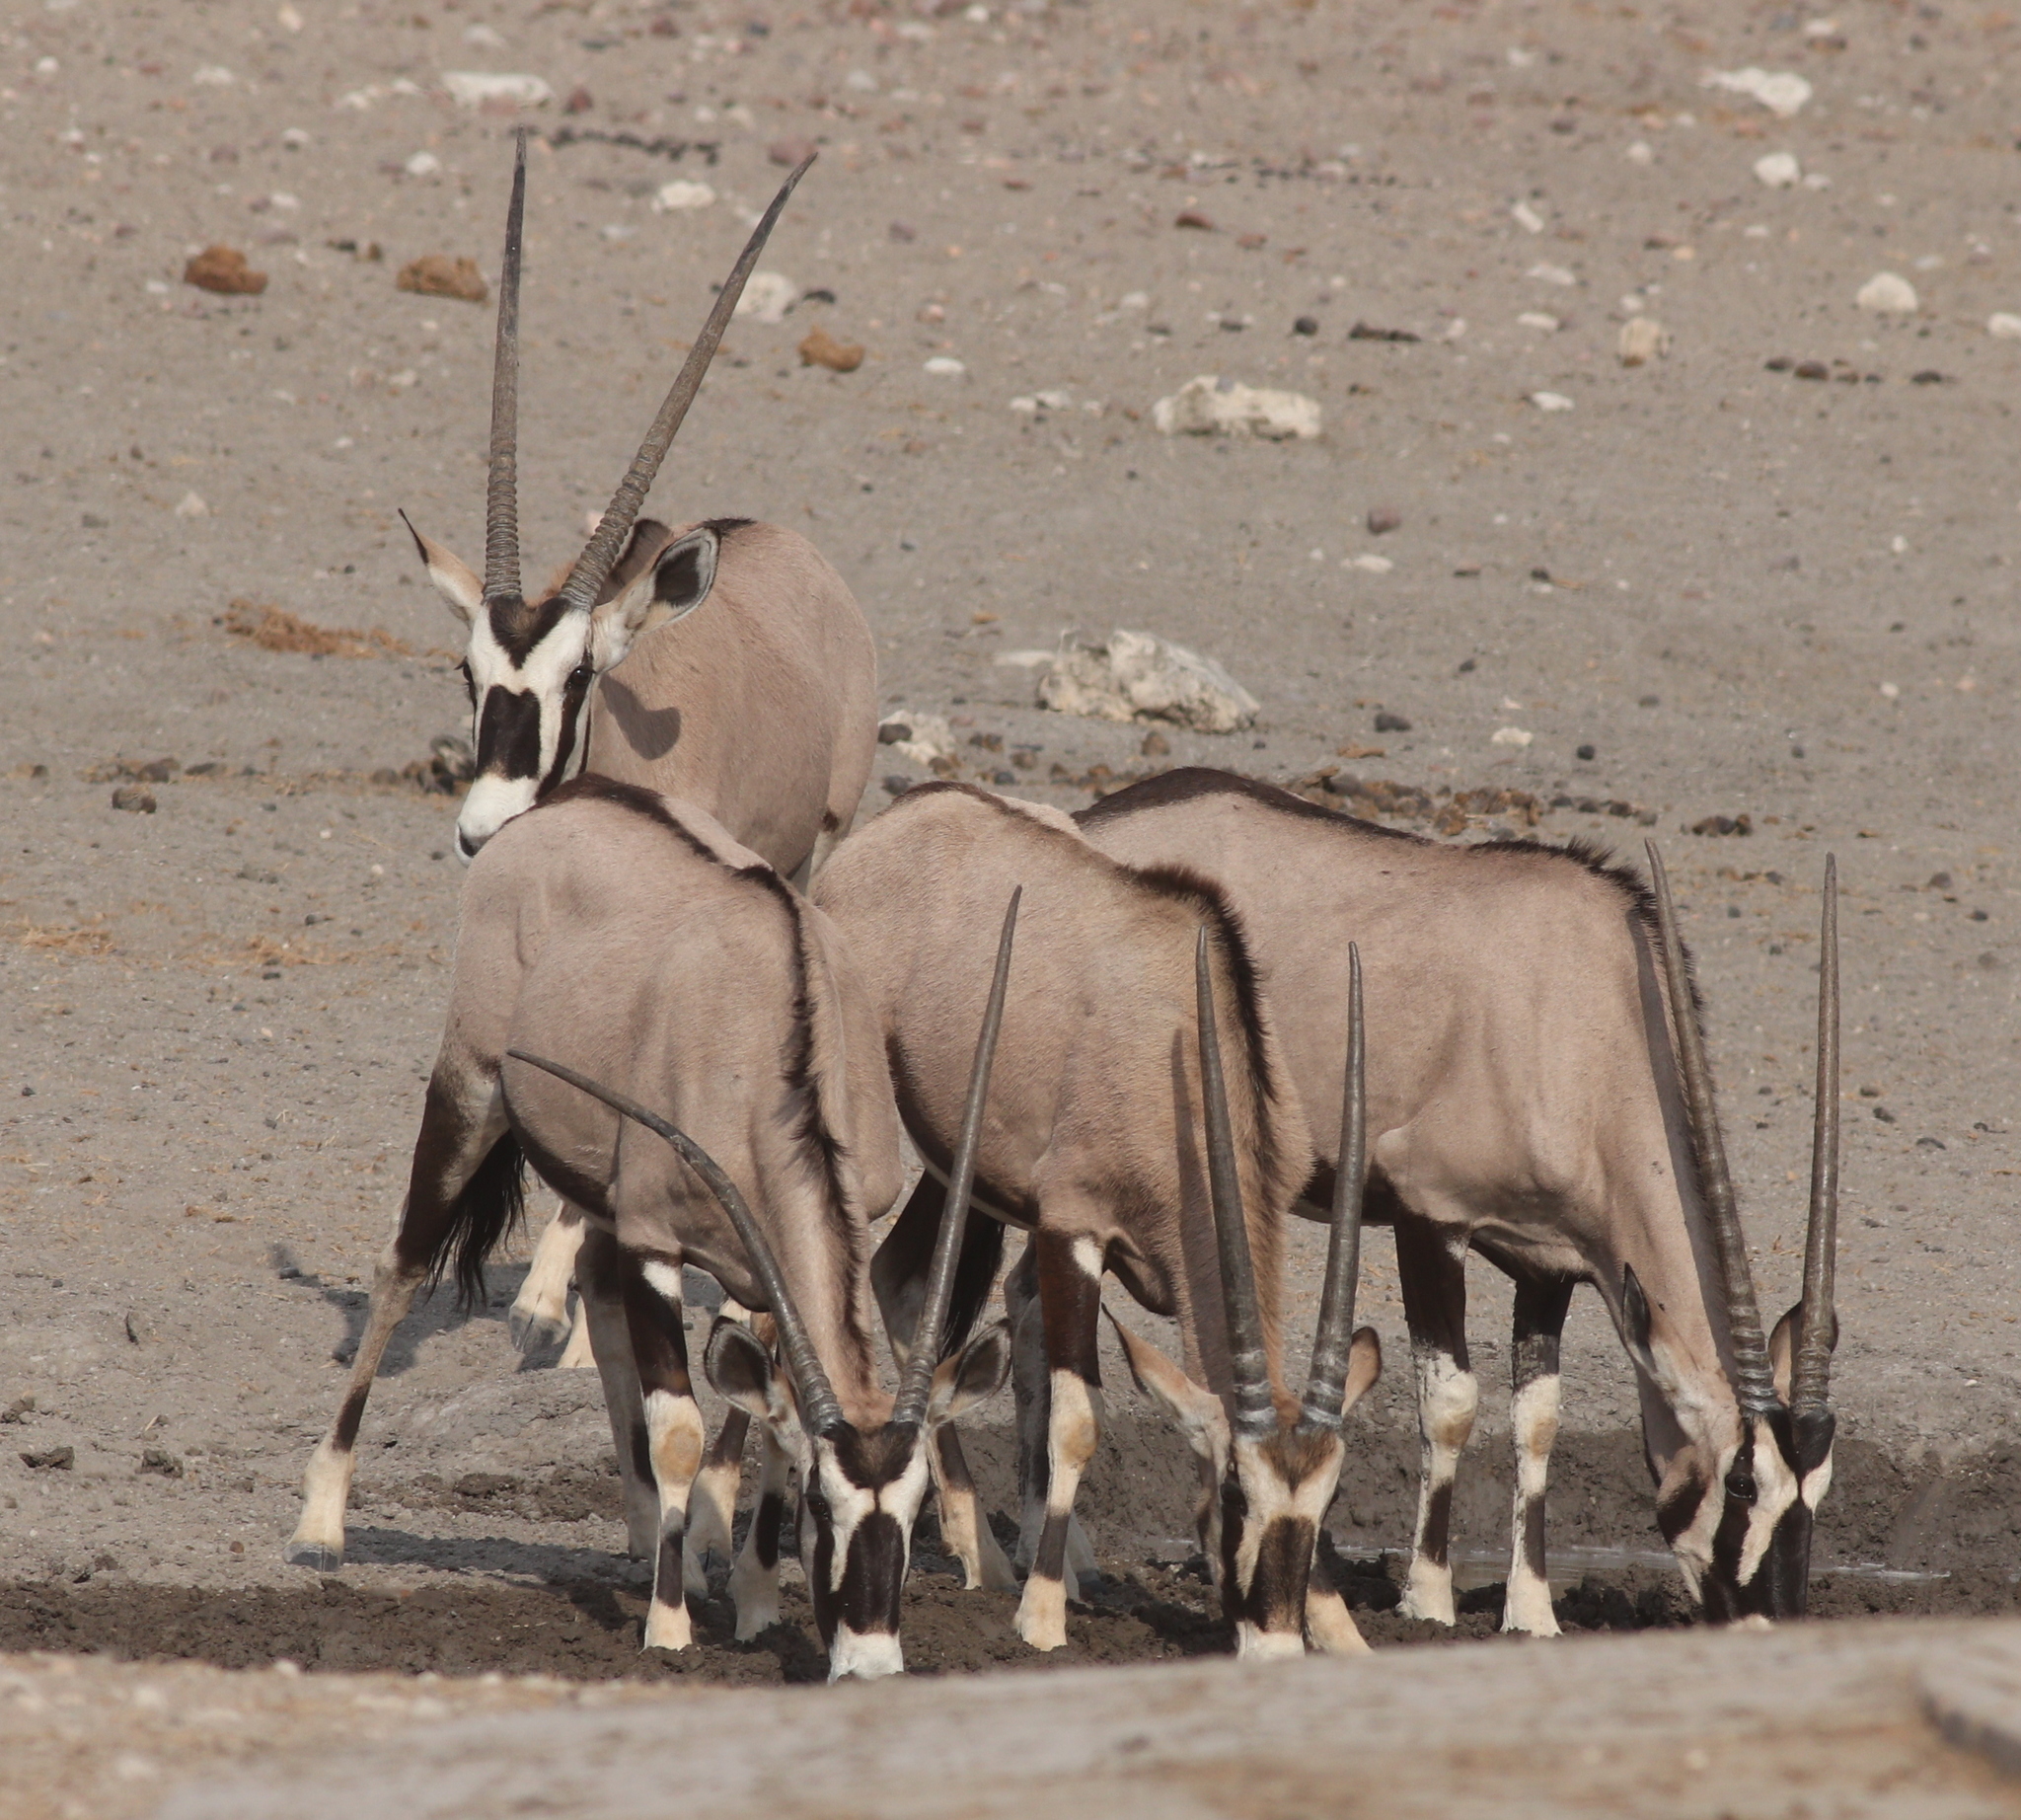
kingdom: Animalia
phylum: Chordata
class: Mammalia
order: Artiodactyla
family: Bovidae
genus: Oryx
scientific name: Oryx gazella
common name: Gemsbok
